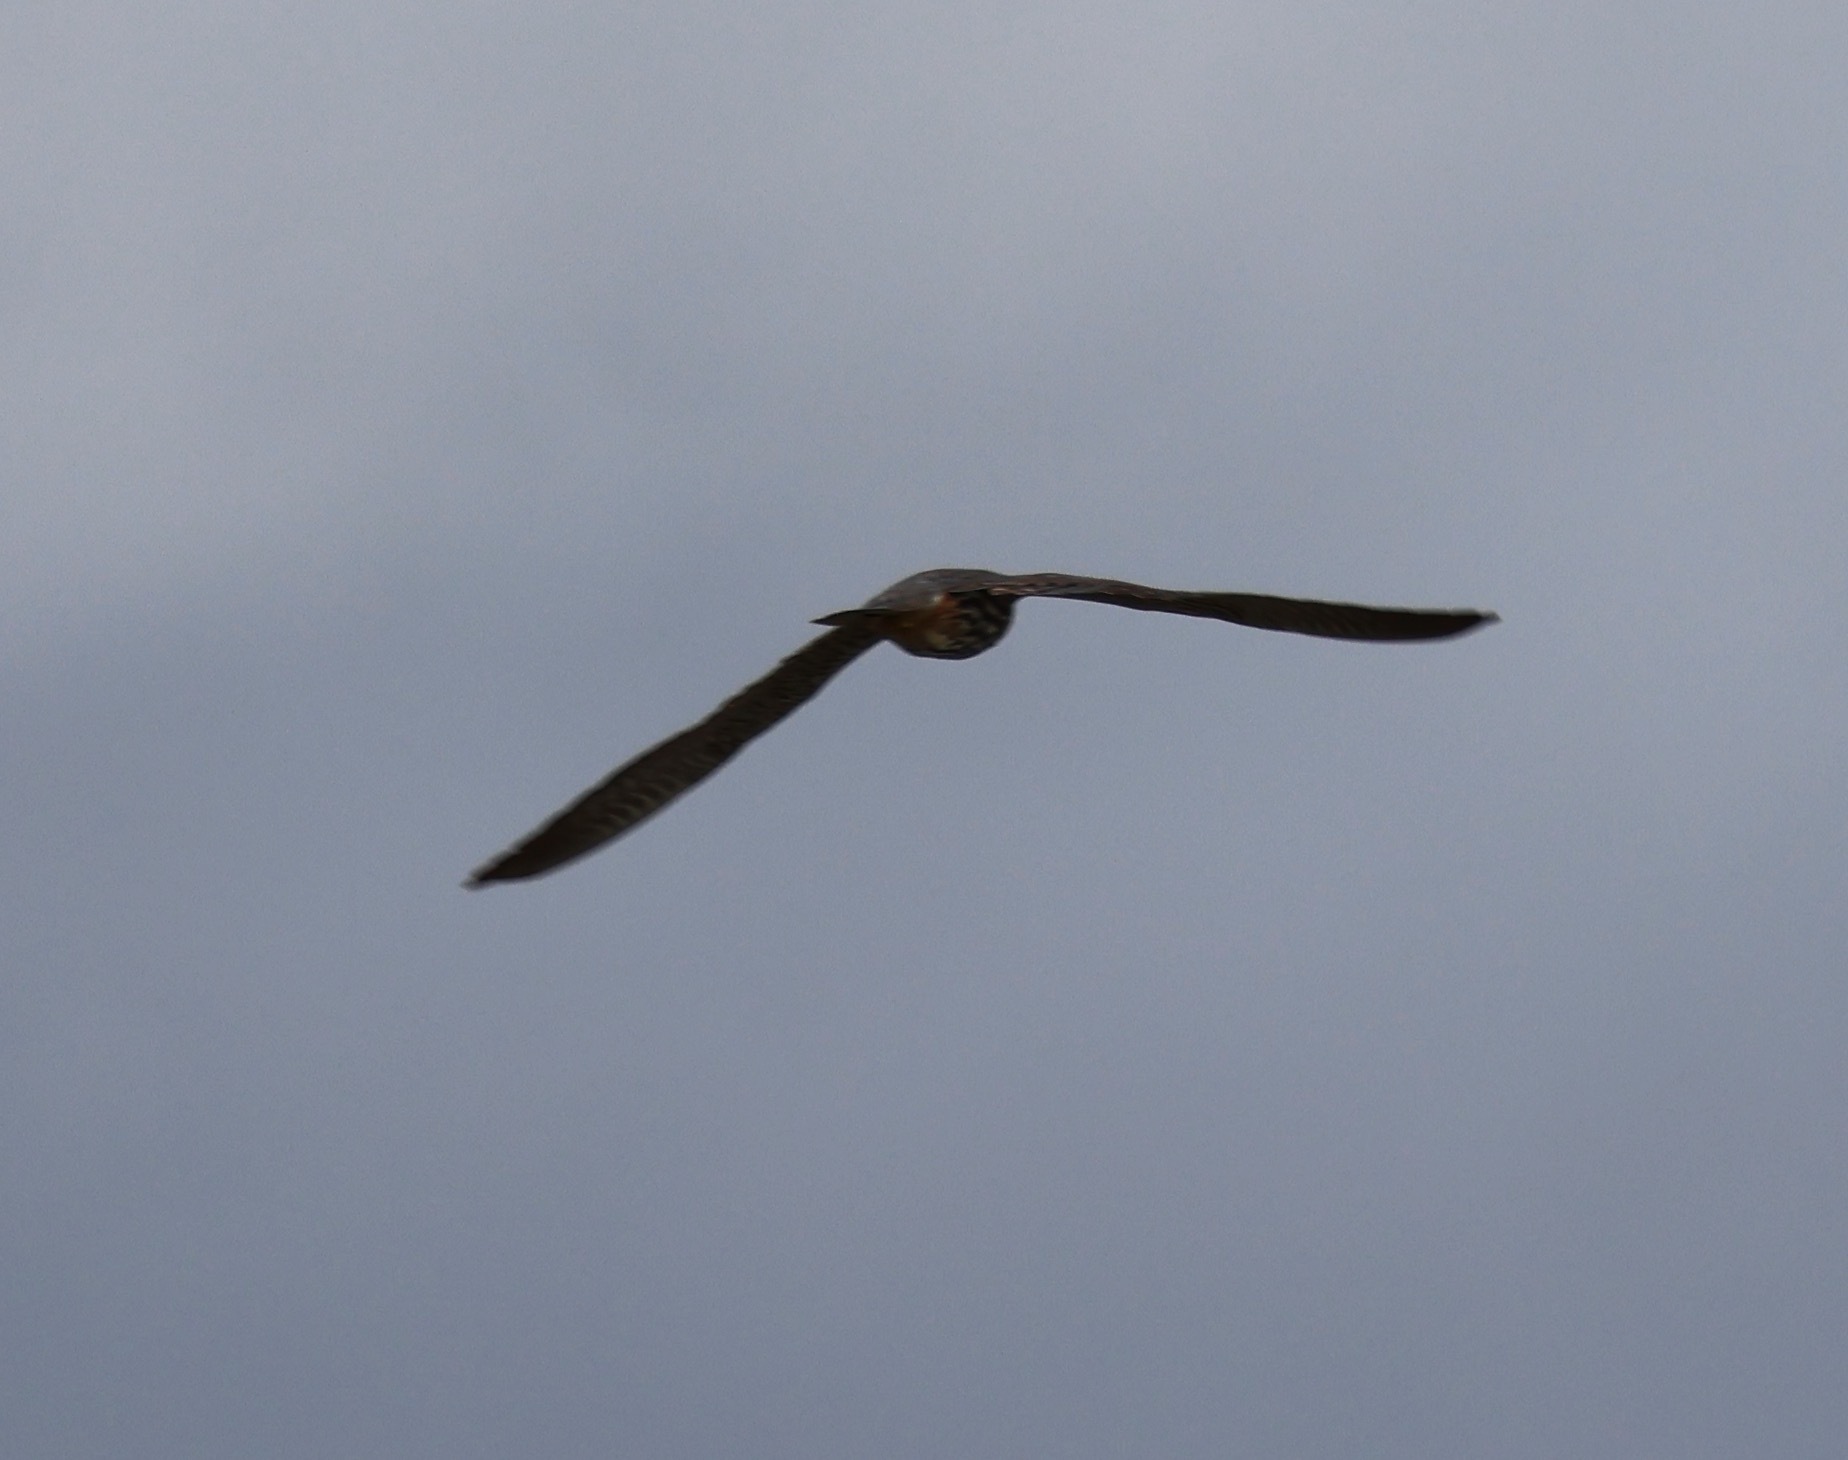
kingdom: Animalia
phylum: Chordata
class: Aves
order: Falconiformes
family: Falconidae
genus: Falco
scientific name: Falco subbuteo
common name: Eurasian hobby
